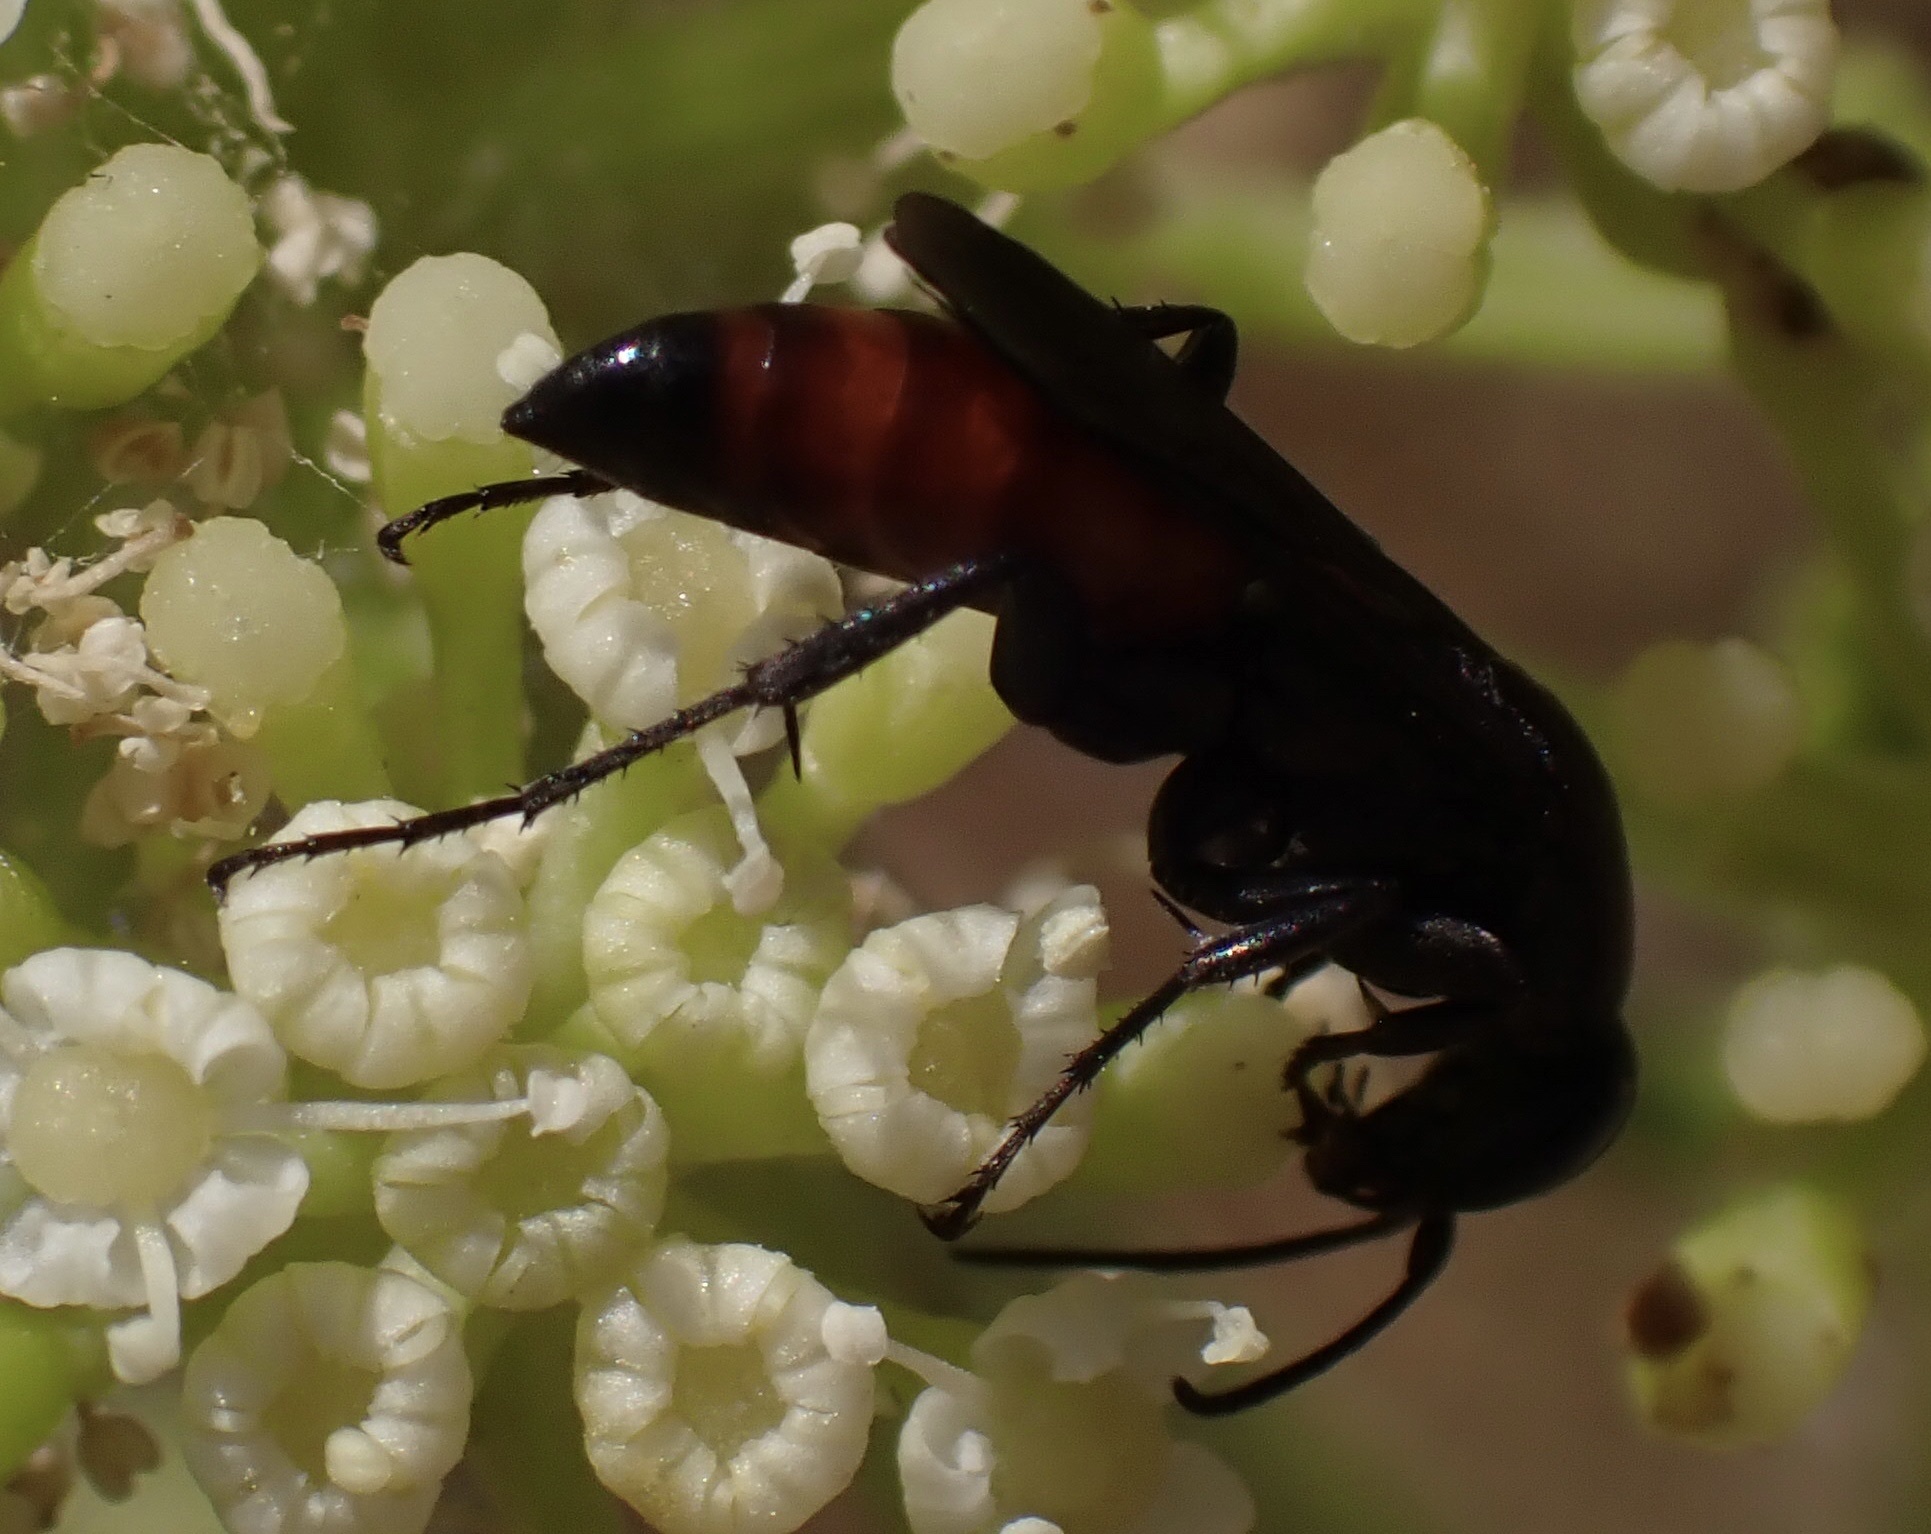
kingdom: Animalia
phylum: Arthropoda
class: Insecta
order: Hymenoptera
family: Pompilidae
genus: Aporus
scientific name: Aporus bicolor
